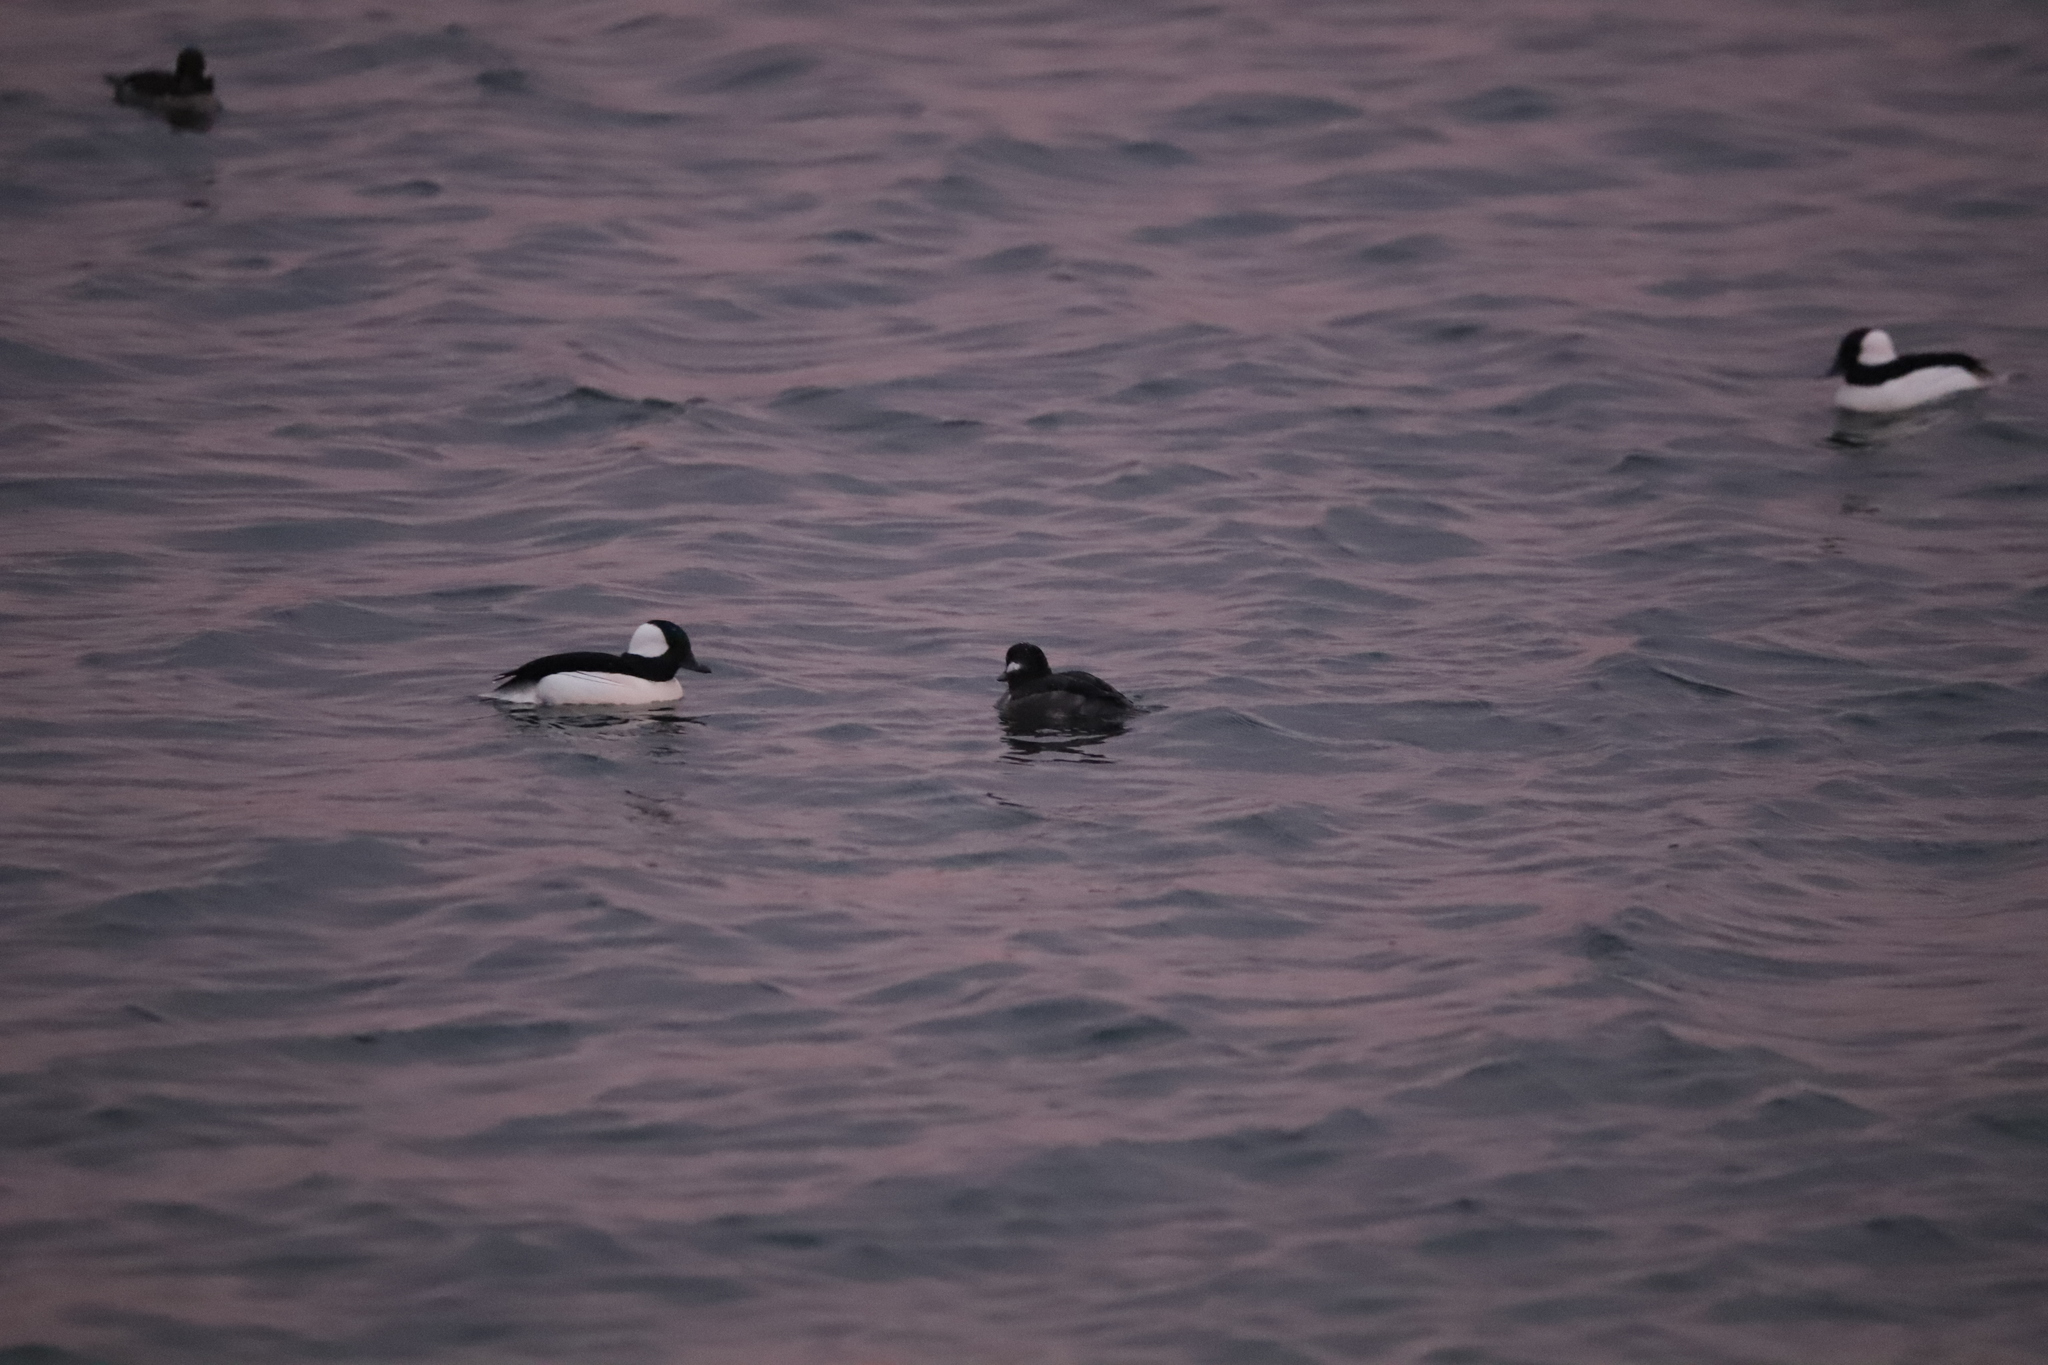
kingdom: Animalia
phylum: Chordata
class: Aves
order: Anseriformes
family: Anatidae
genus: Bucephala
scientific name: Bucephala albeola
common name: Bufflehead
